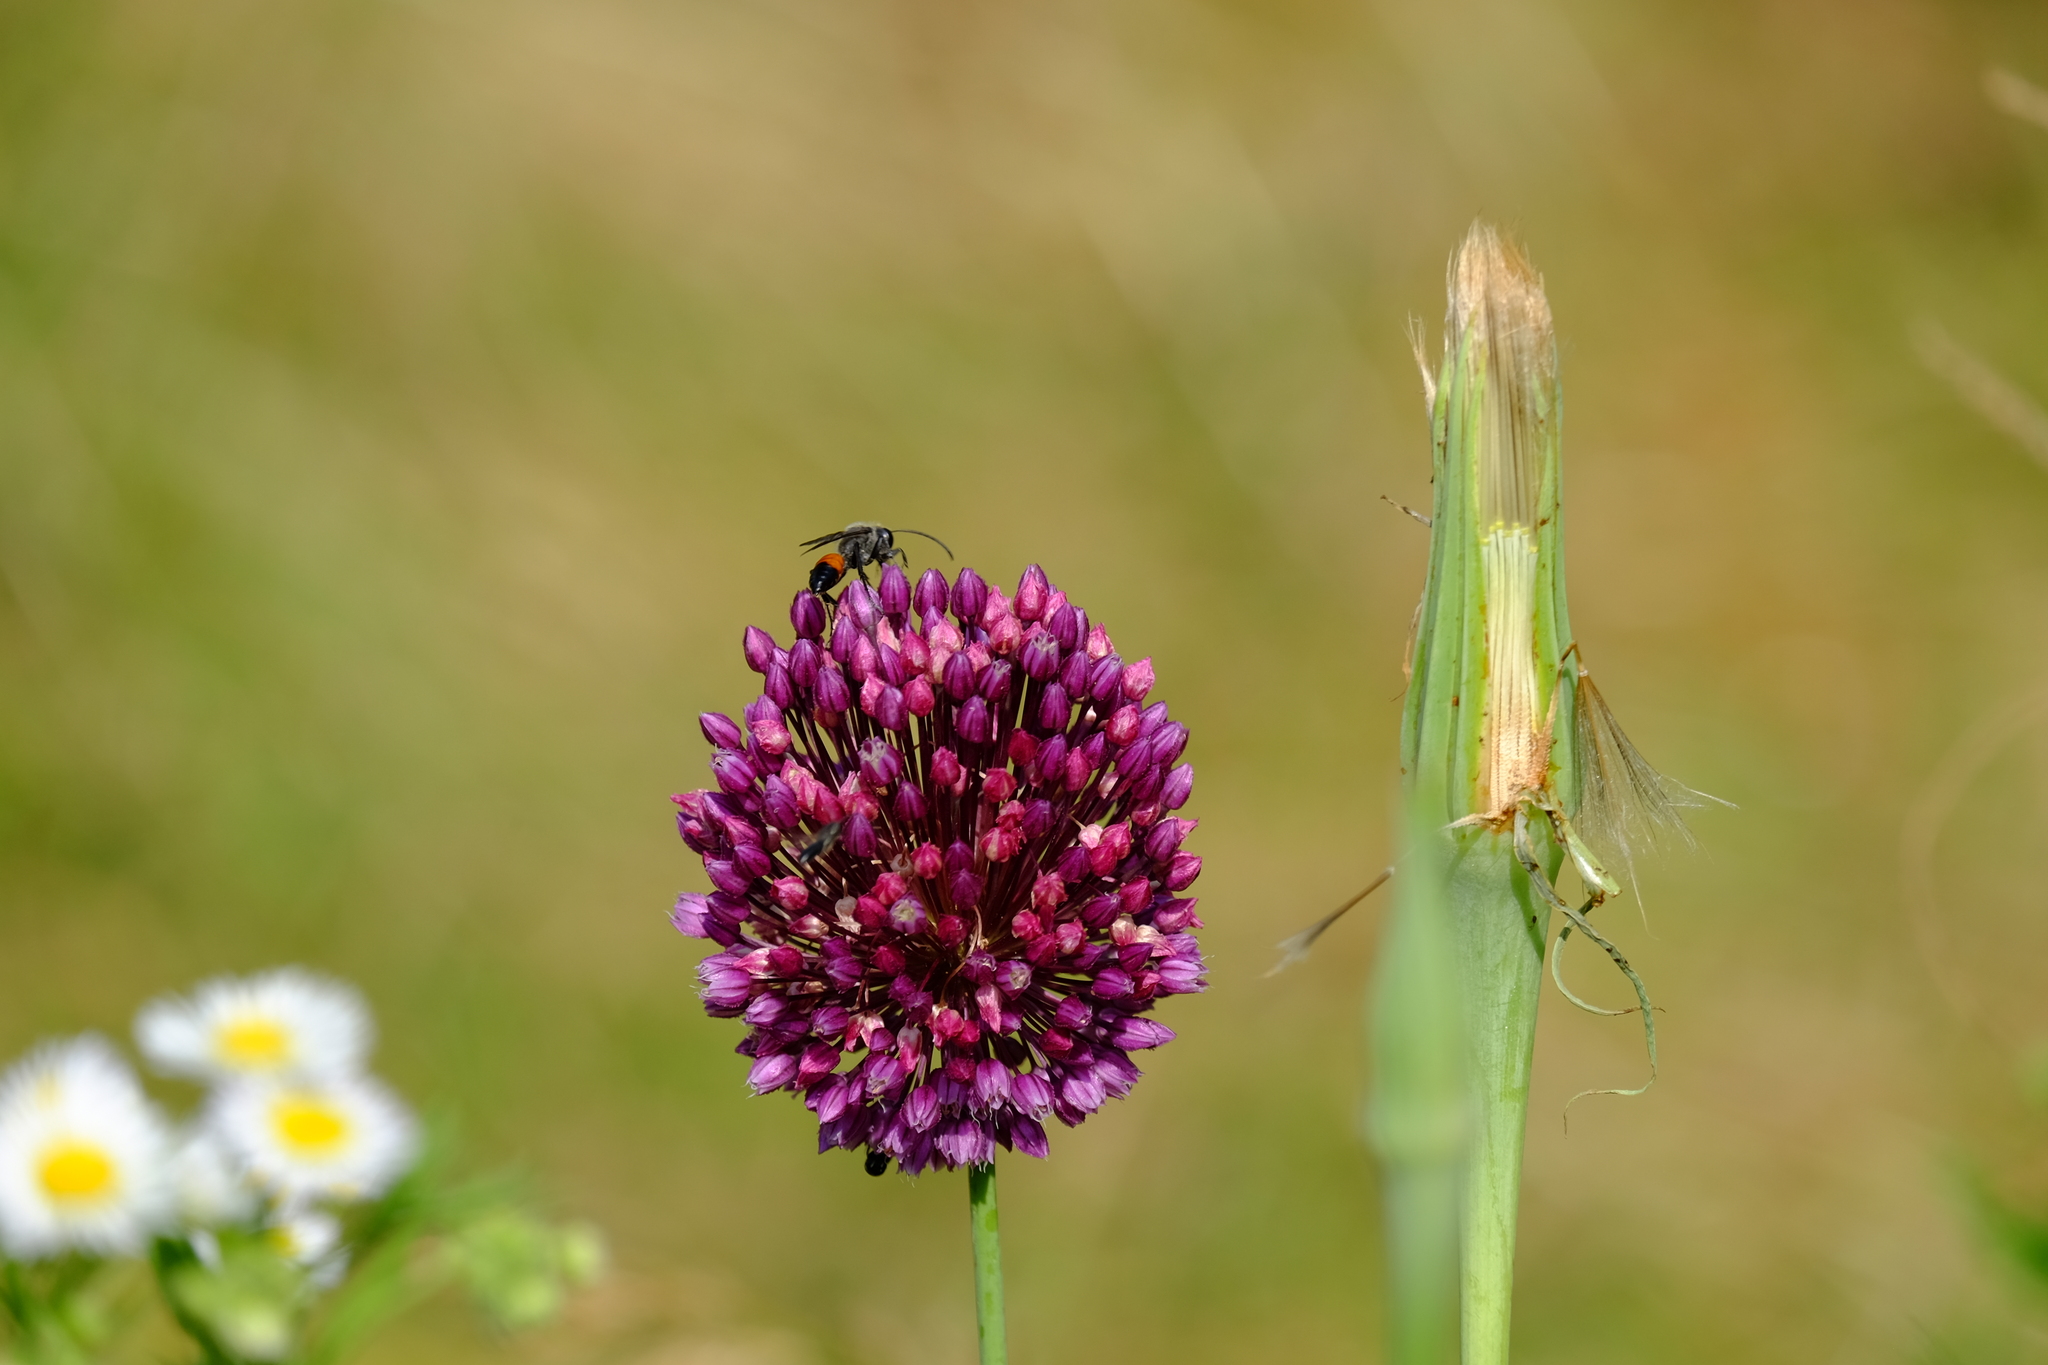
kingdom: Animalia
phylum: Arthropoda
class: Insecta
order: Hymenoptera
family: Sphecidae
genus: Sphex
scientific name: Sphex funerarius
